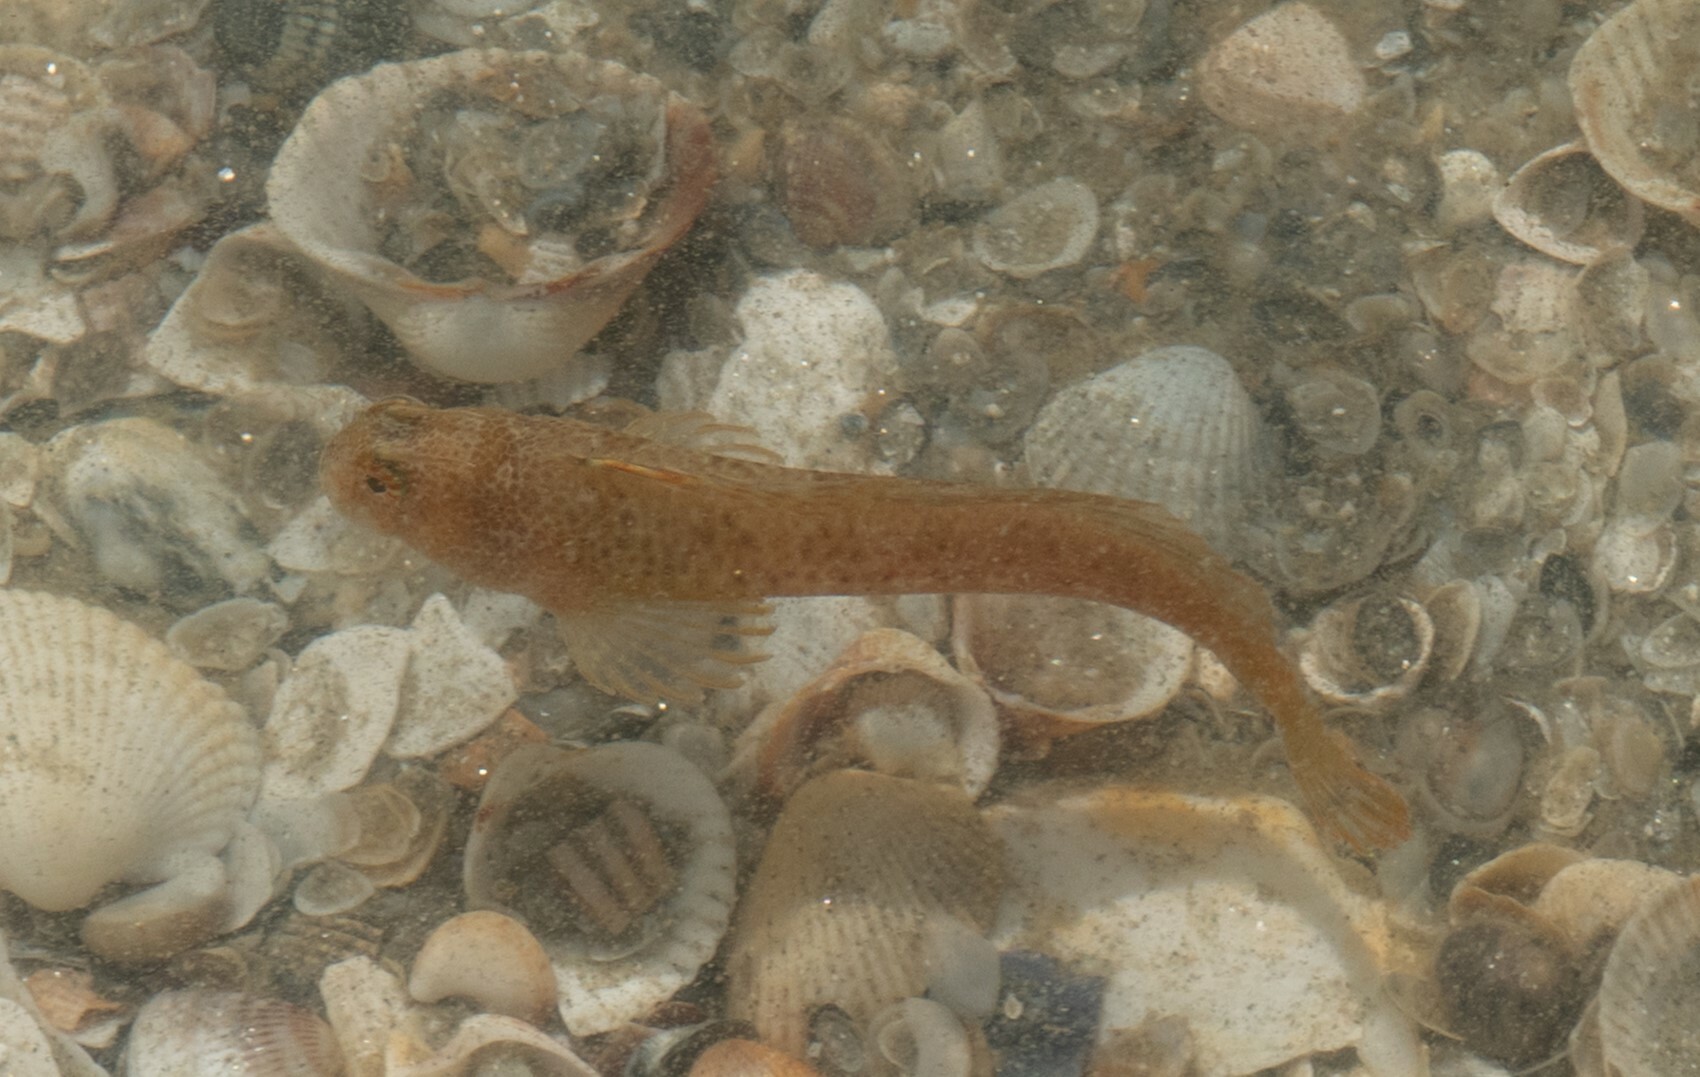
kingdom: Animalia
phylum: Chordata
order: Perciformes
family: Blenniidae
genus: Parablennius
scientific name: Parablennius tentacularis
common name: Tentacled blenny
